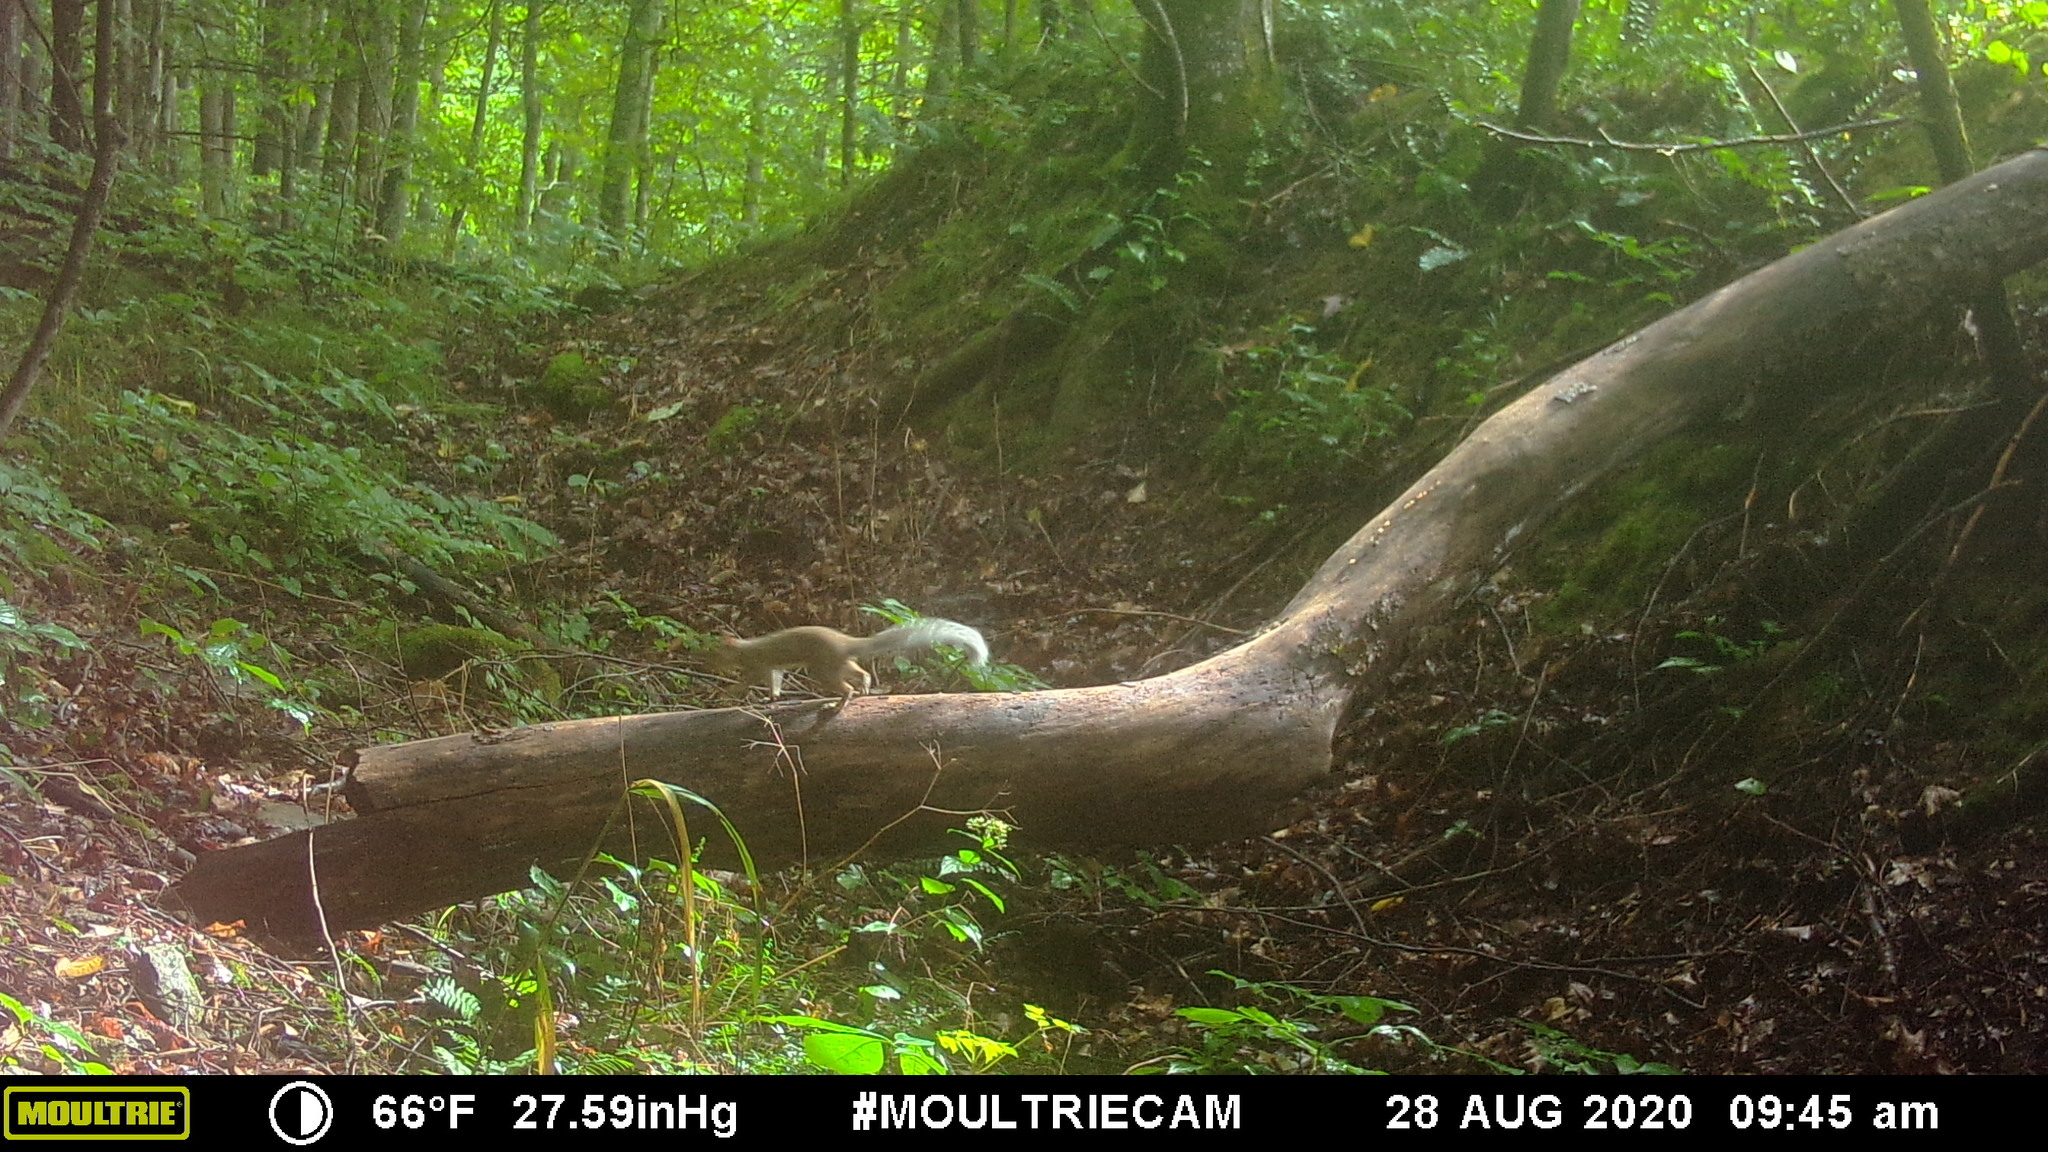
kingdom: Animalia
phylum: Chordata
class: Mammalia
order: Rodentia
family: Sciuridae
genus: Sciurus
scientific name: Sciurus carolinensis
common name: Eastern gray squirrel
